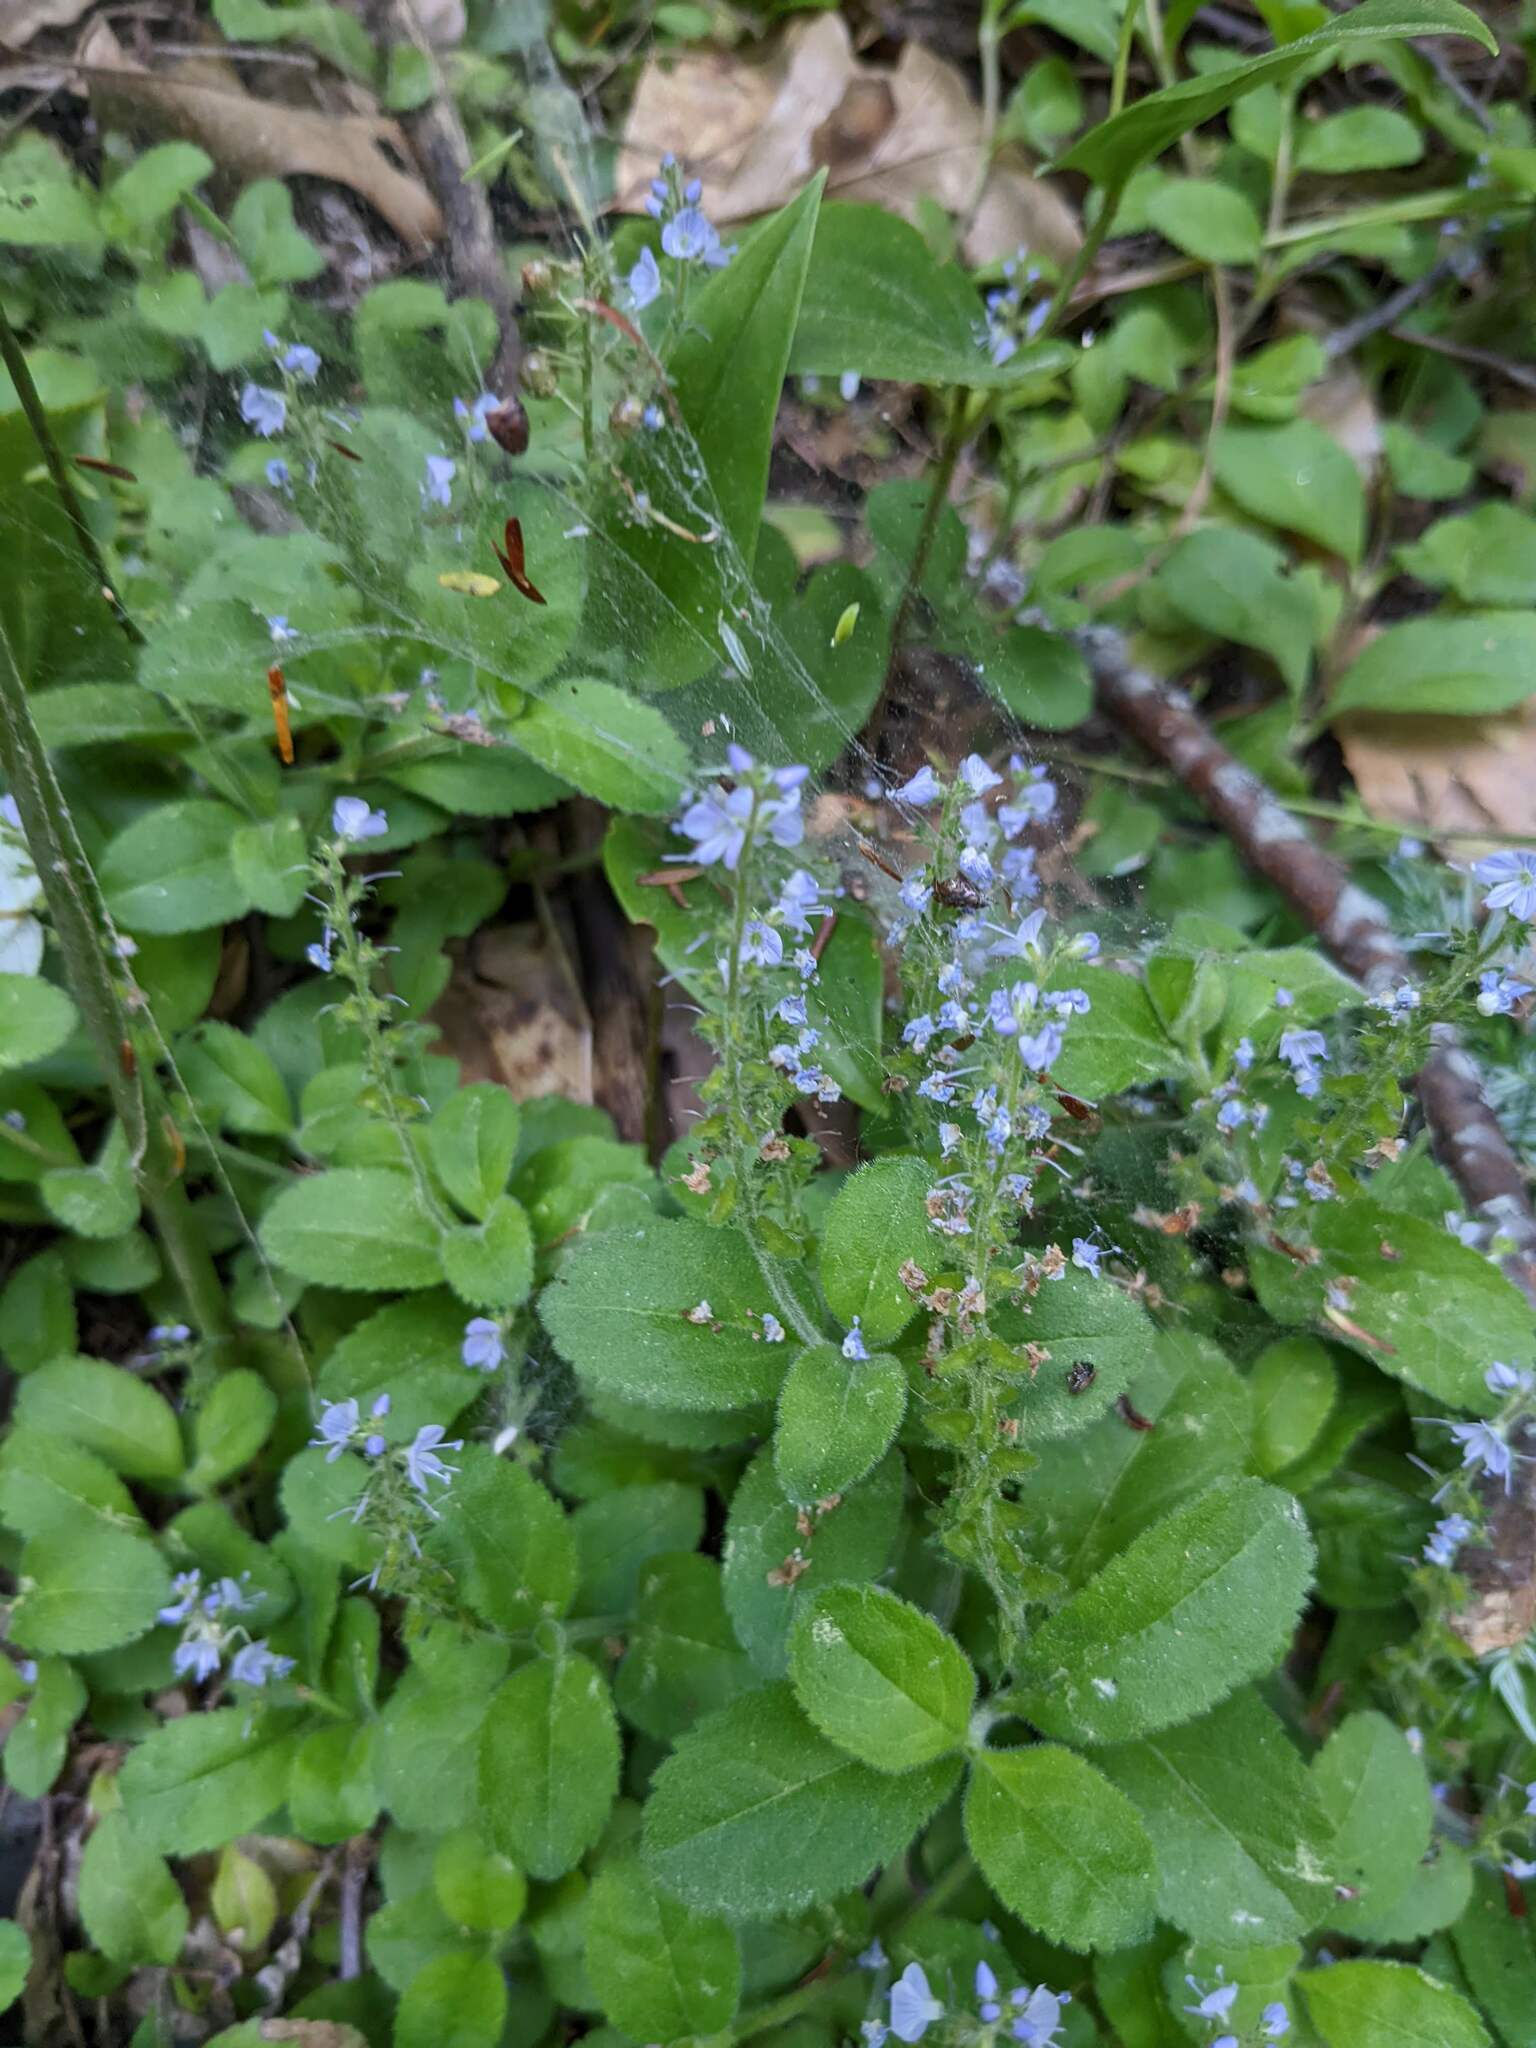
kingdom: Plantae
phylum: Tracheophyta
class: Magnoliopsida
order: Lamiales
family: Plantaginaceae
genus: Veronica
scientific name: Veronica officinalis
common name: Common speedwell
